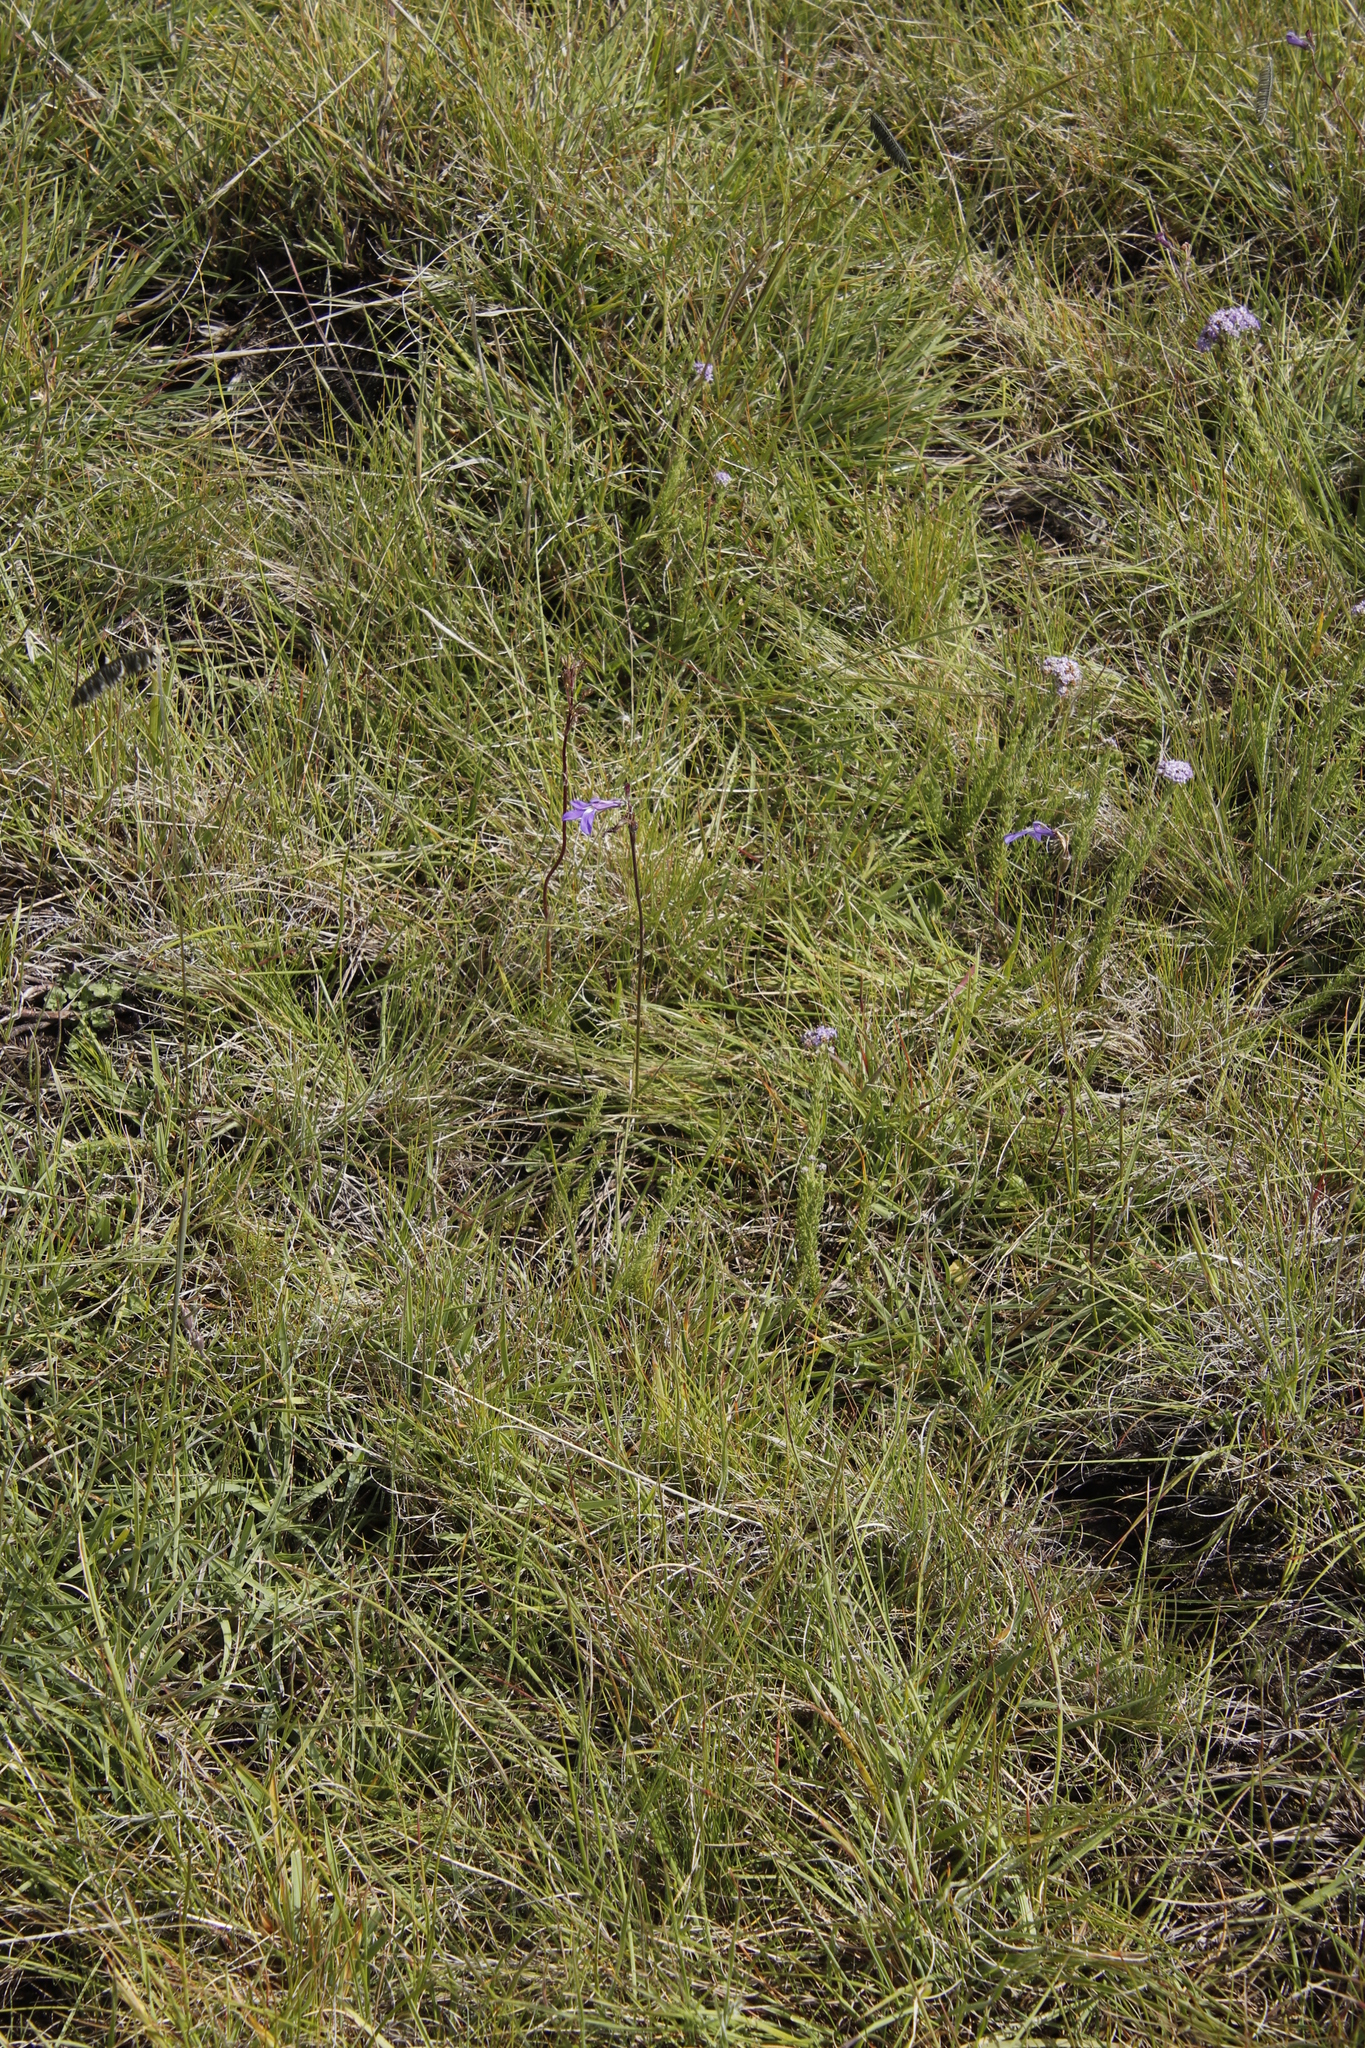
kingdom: Plantae
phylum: Tracheophyta
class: Magnoliopsida
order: Asterales
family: Campanulaceae
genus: Lobelia
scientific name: Lobelia preslii
